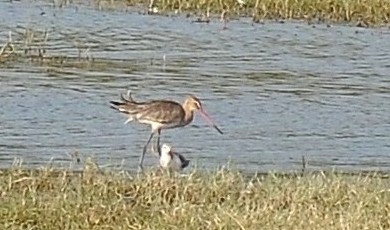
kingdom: Animalia
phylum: Chordata
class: Aves
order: Charadriiformes
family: Scolopacidae
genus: Limosa
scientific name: Limosa limosa
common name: Black-tailed godwit
